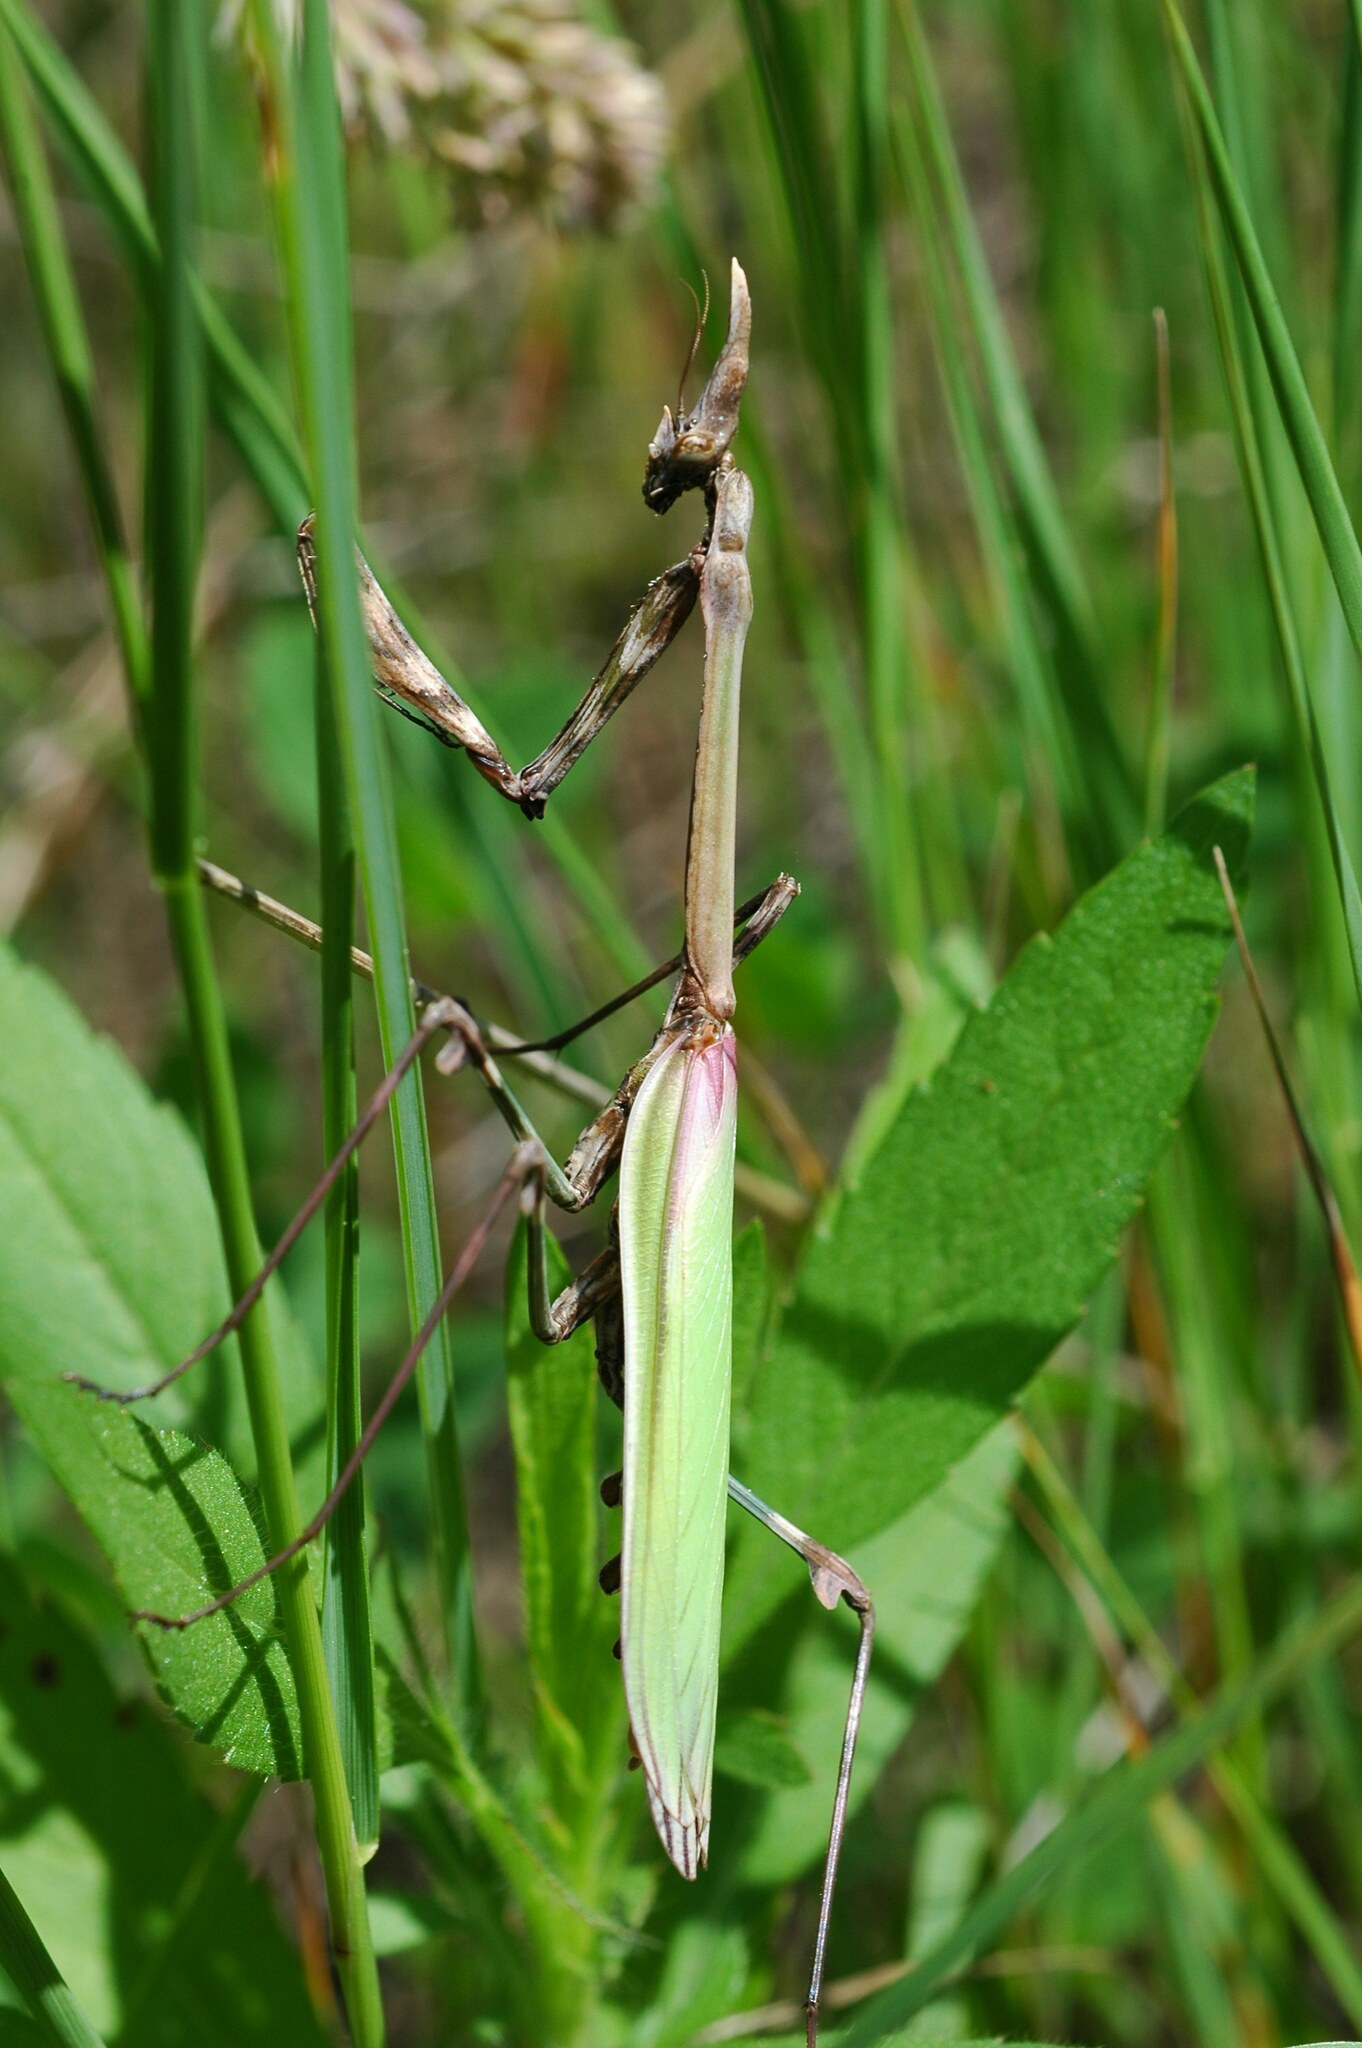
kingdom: Animalia
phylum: Arthropoda
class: Insecta
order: Mantodea
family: Empusidae
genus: Empusa
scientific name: Empusa pennata
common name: Conehead mantis
